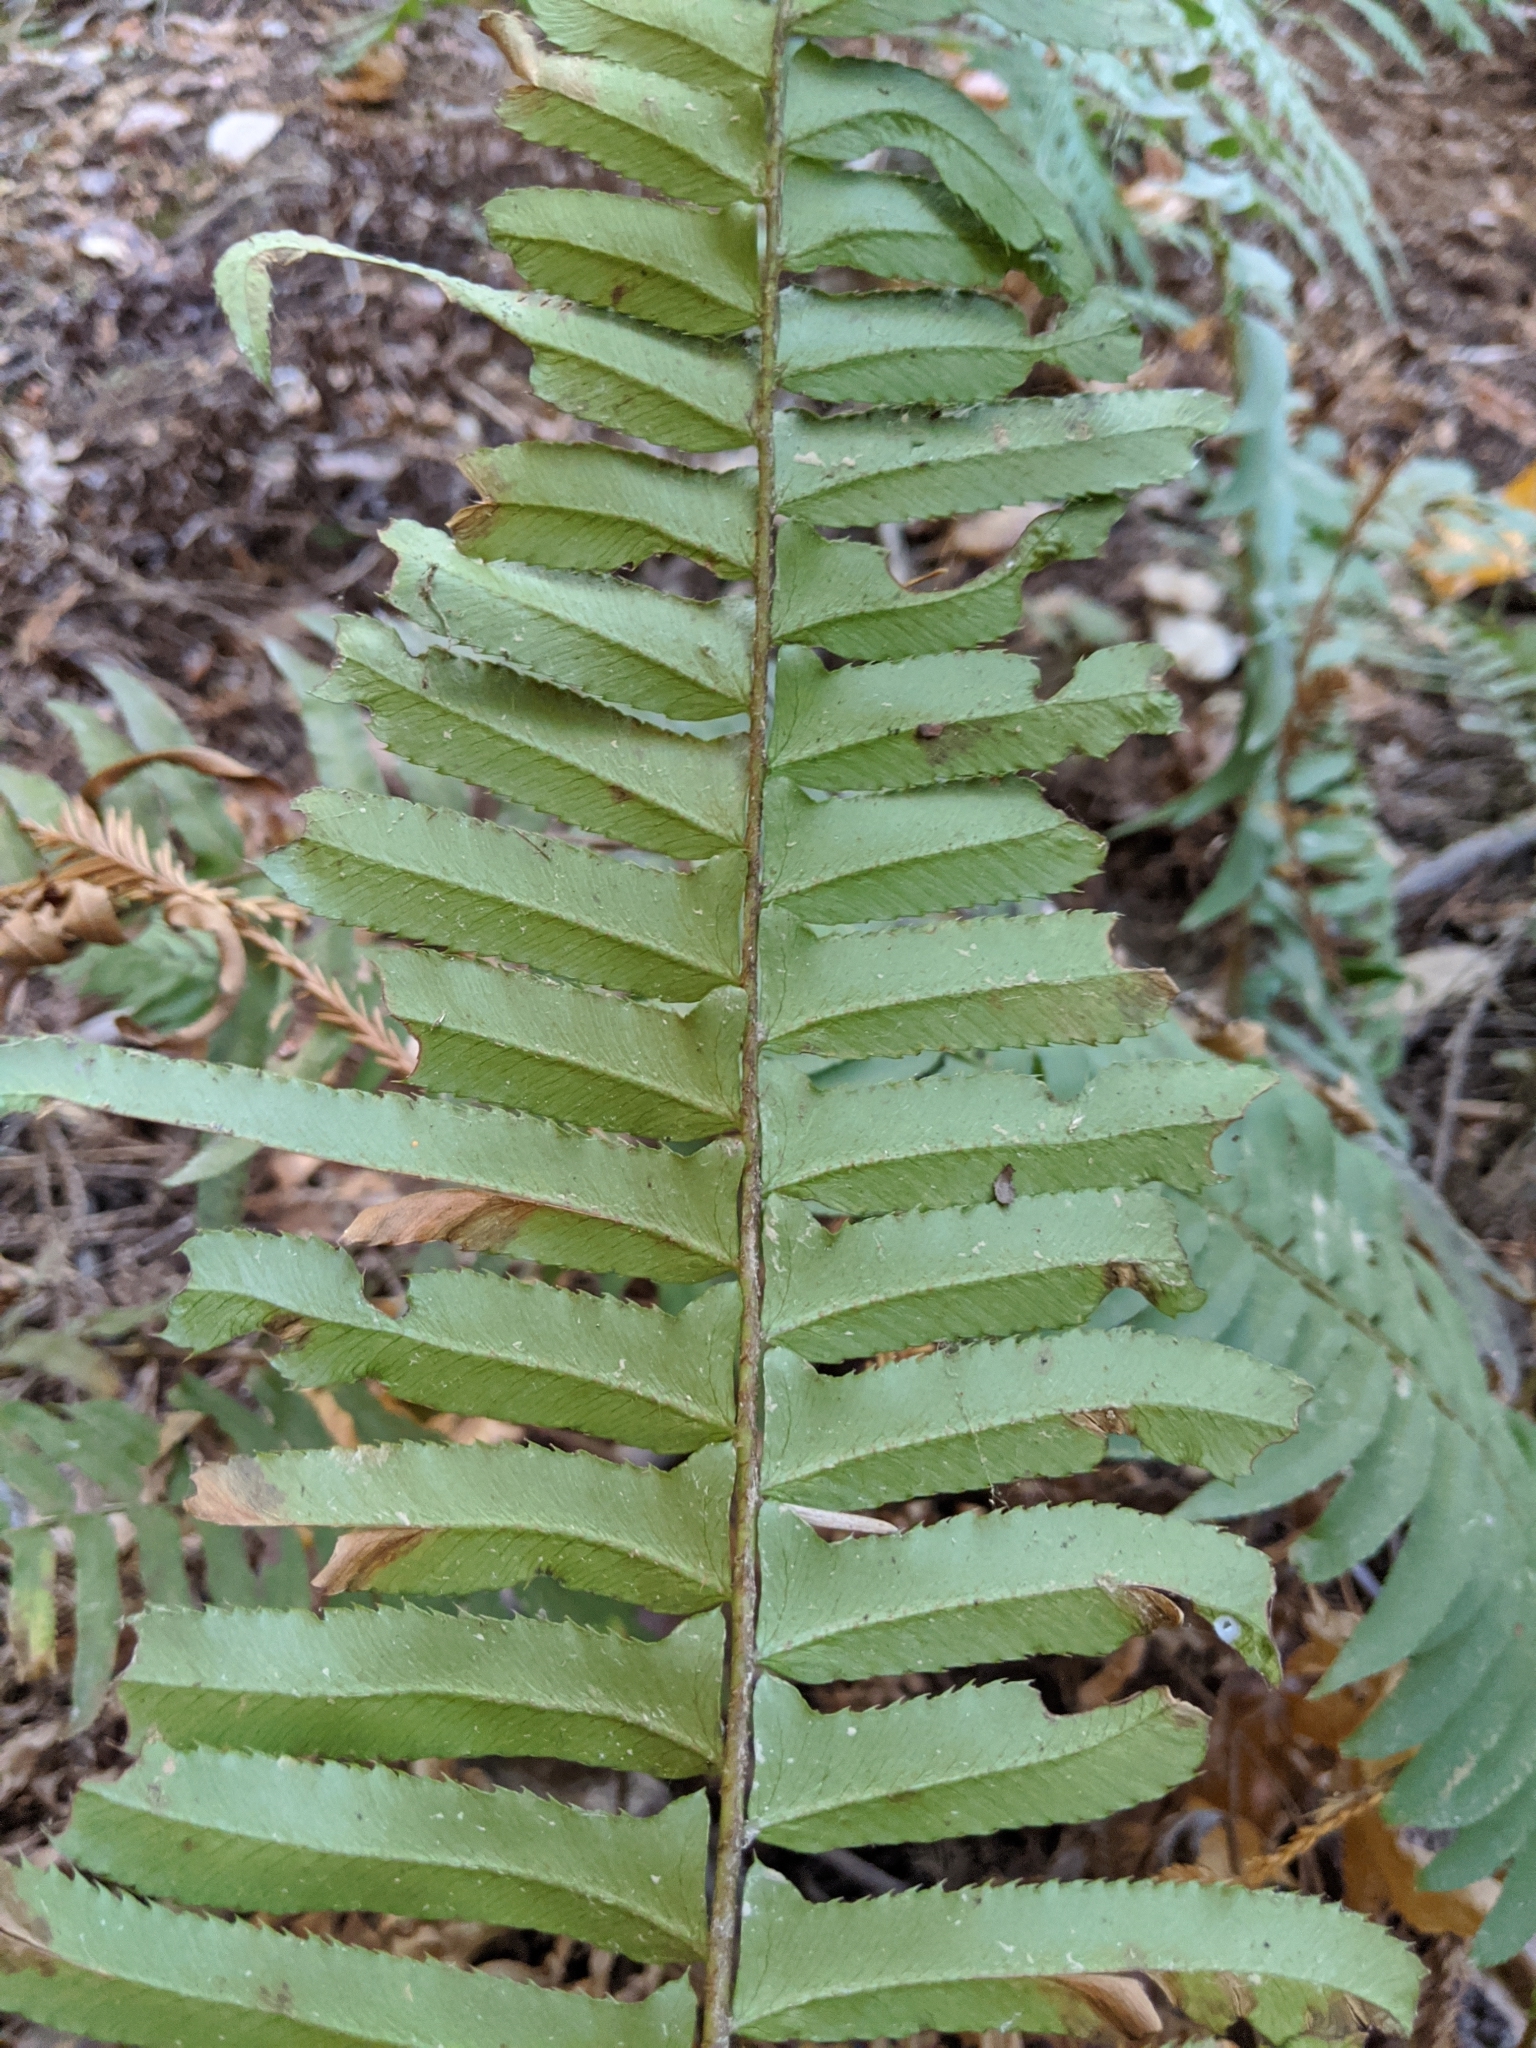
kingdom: Plantae
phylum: Tracheophyta
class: Polypodiopsida
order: Polypodiales
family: Dryopteridaceae
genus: Polystichum
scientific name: Polystichum munitum
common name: Western sword-fern
